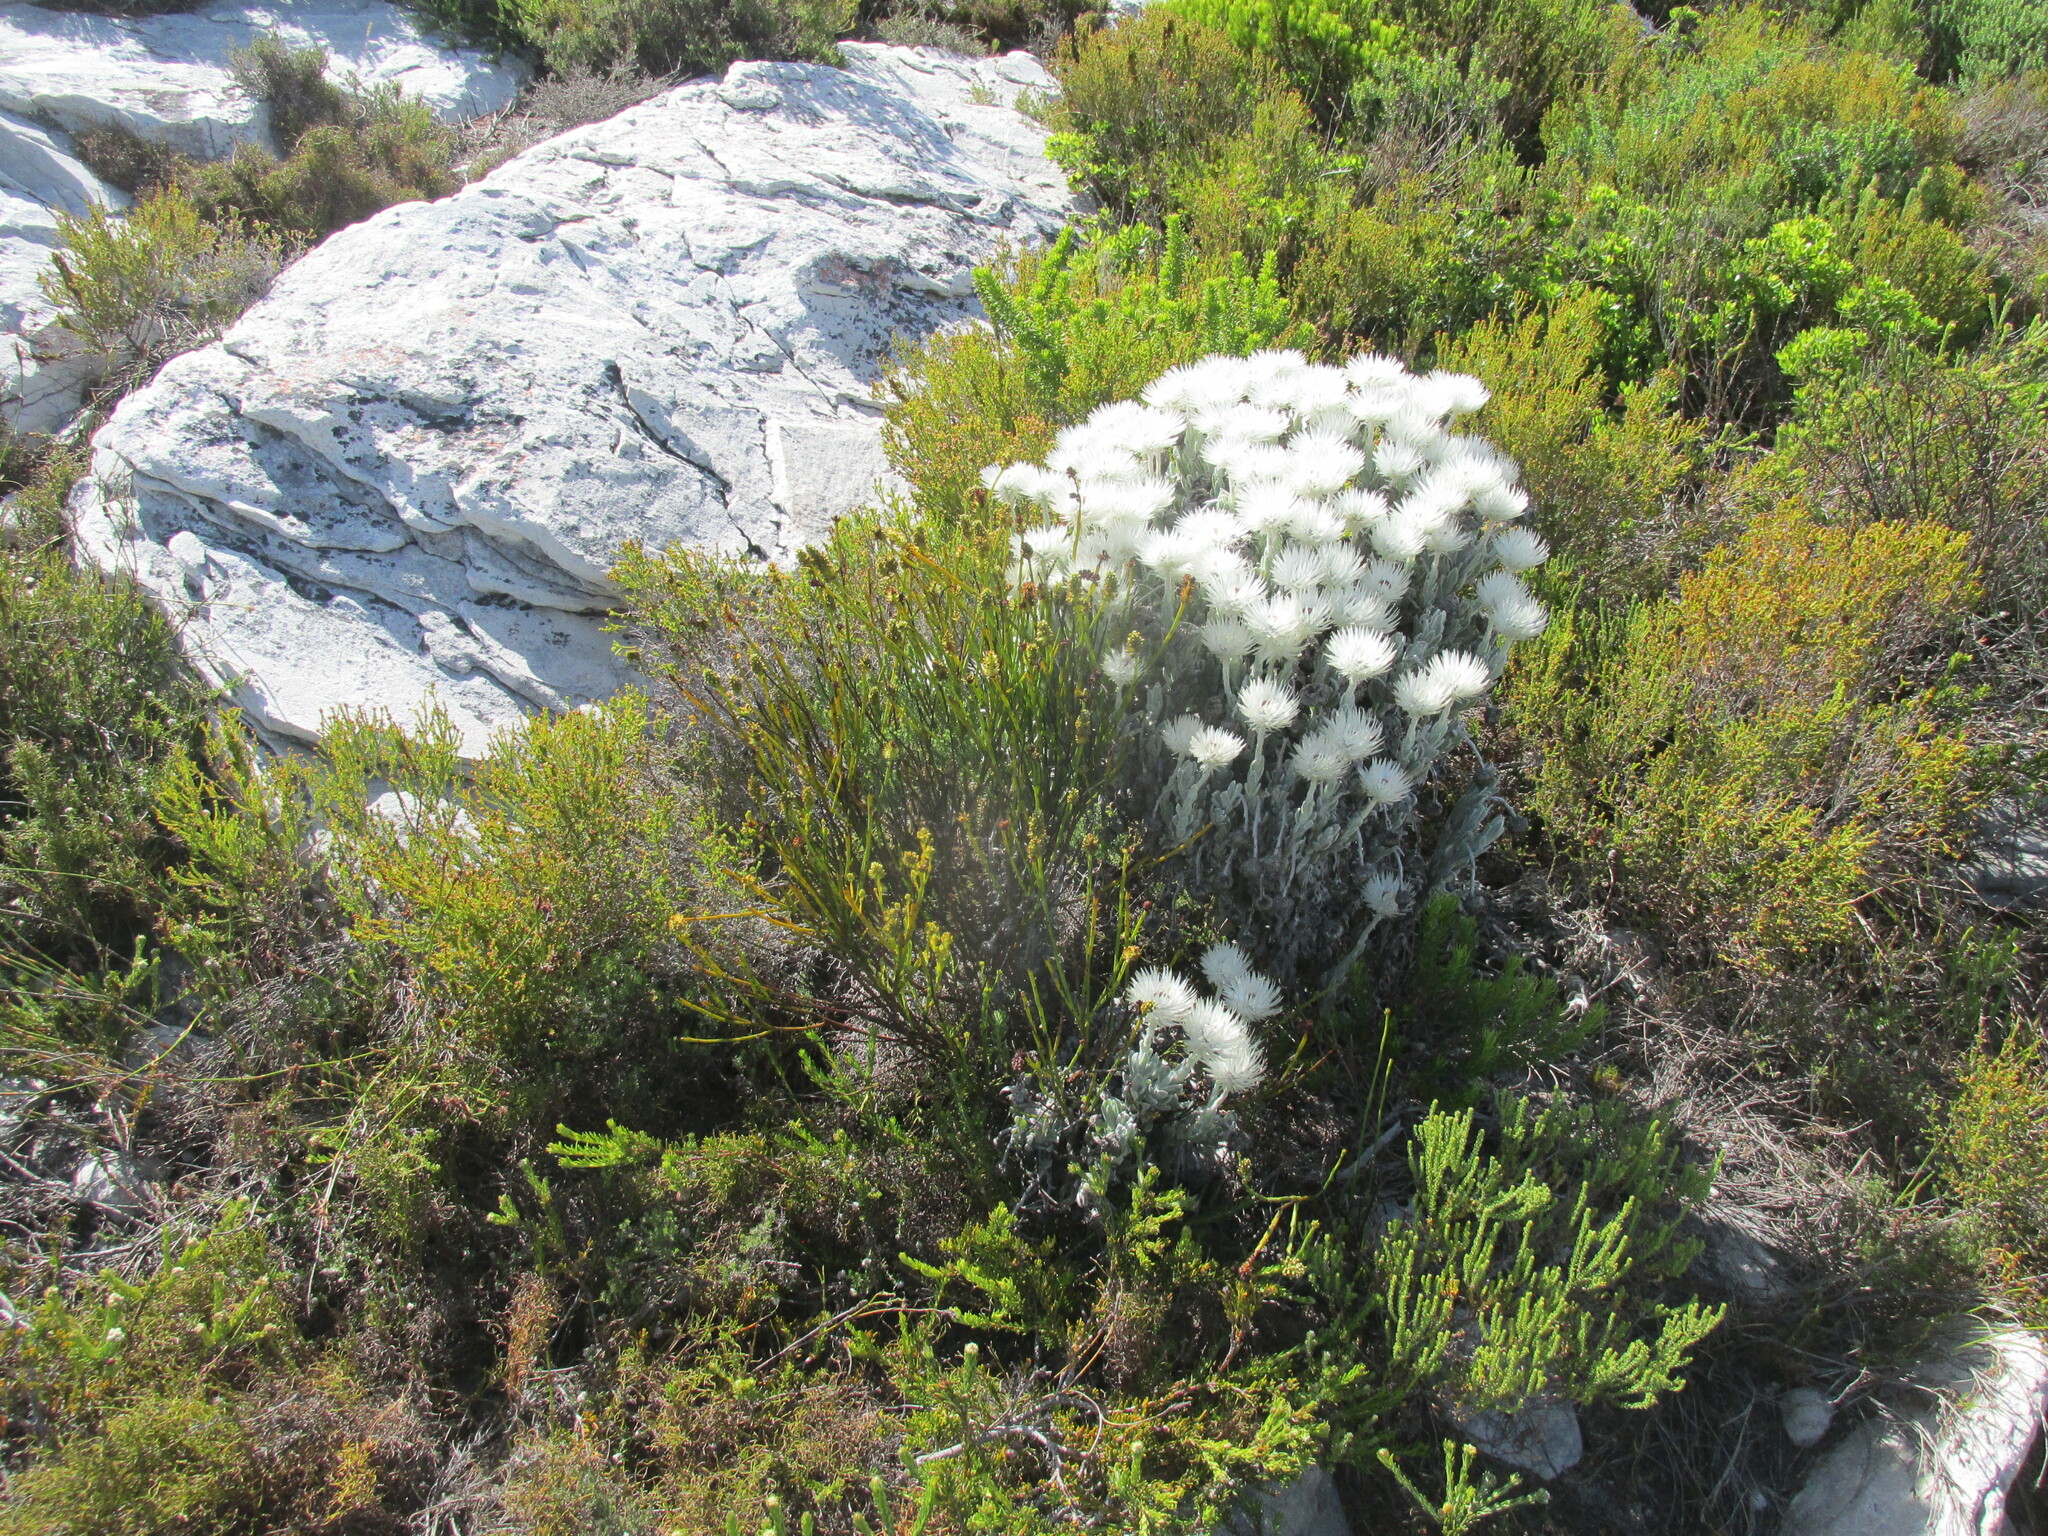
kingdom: Plantae
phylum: Tracheophyta
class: Magnoliopsida
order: Asterales
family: Asteraceae
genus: Syncarpha
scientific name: Syncarpha vestita
